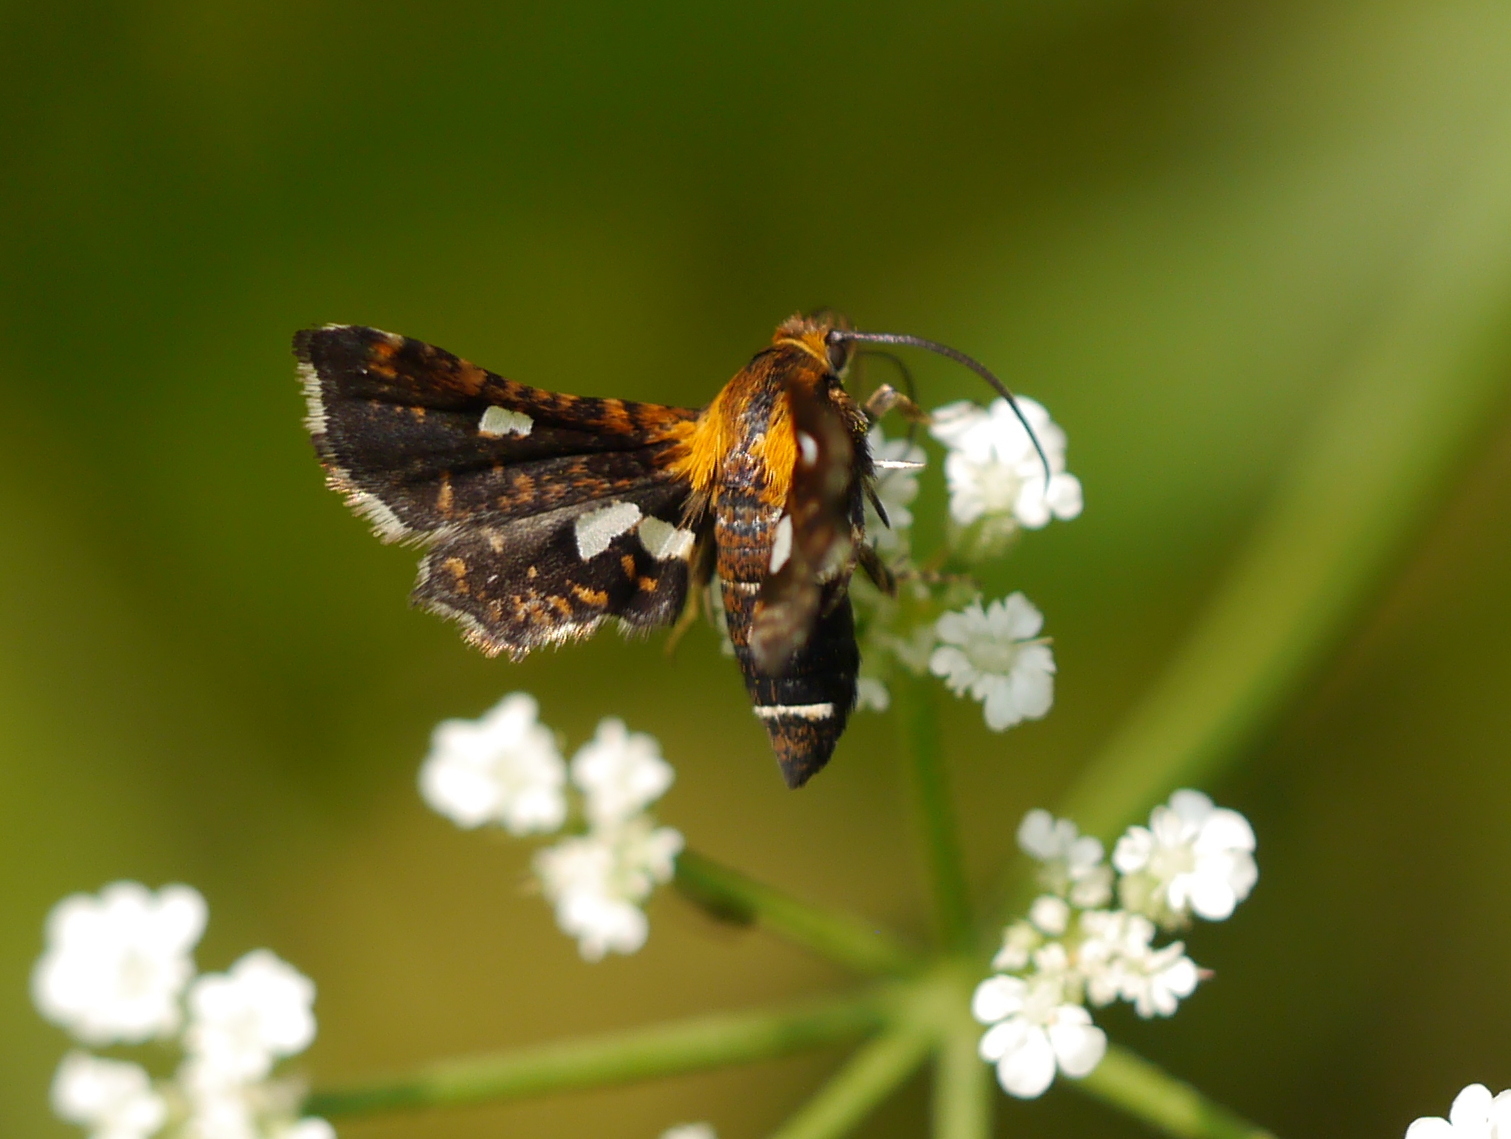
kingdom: Animalia
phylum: Arthropoda
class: Insecta
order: Lepidoptera
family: Thyrididae
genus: Thyris
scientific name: Thyris maculata
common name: Spotted thyris moth
